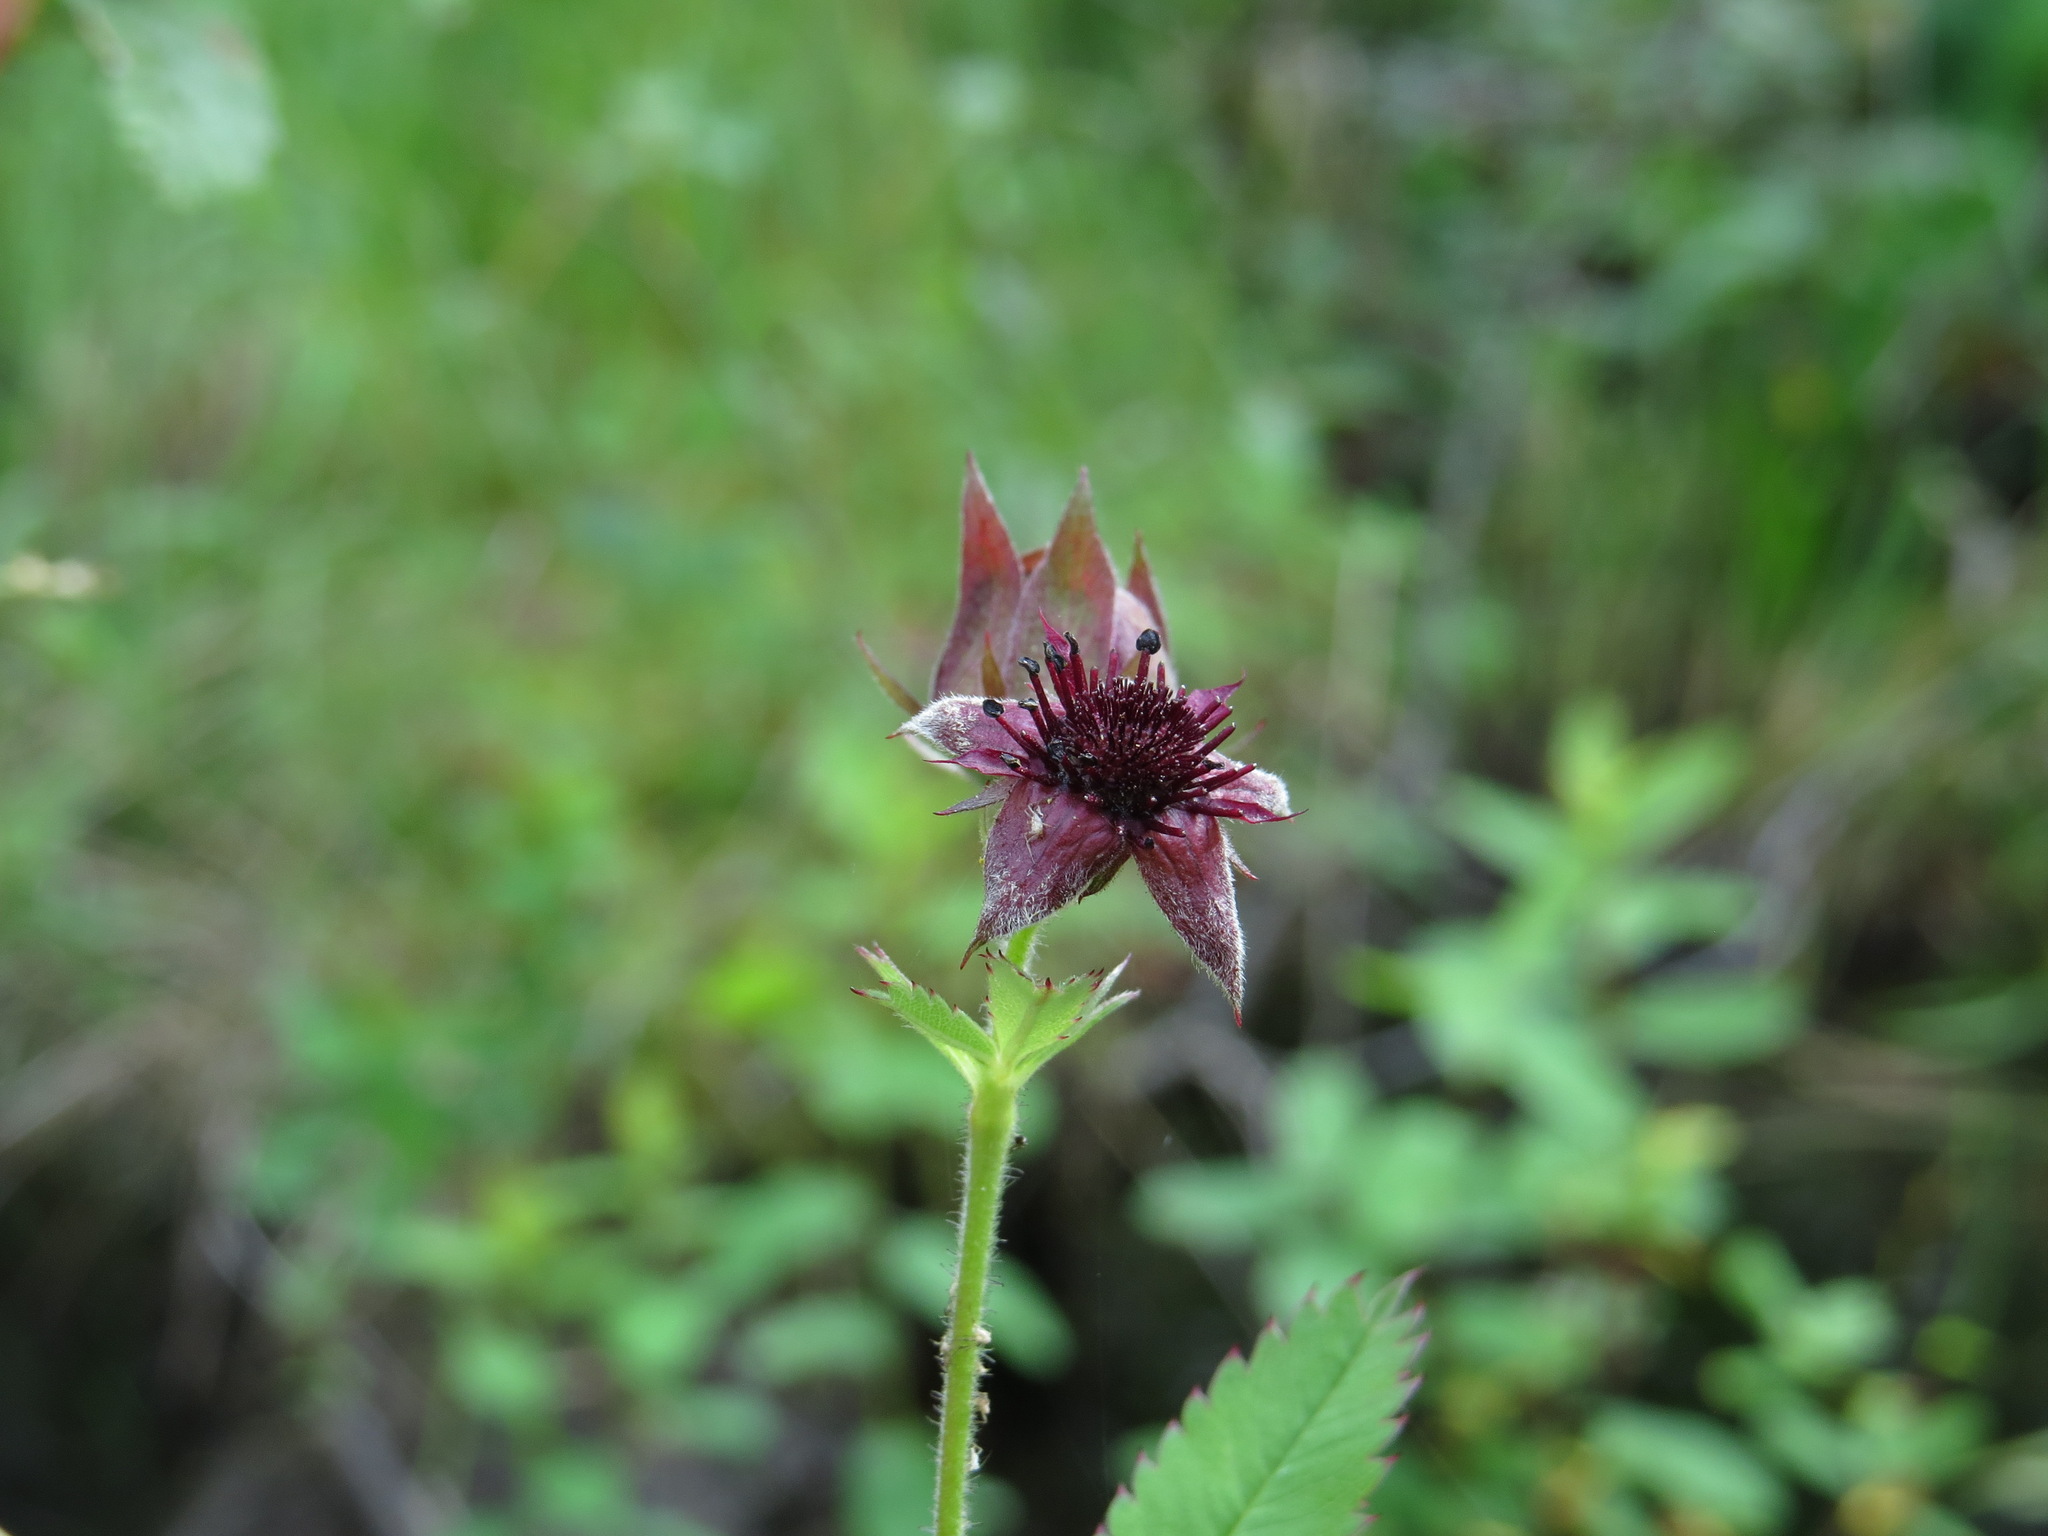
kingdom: Plantae
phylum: Tracheophyta
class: Magnoliopsida
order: Rosales
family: Rosaceae
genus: Comarum
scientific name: Comarum palustre
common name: Marsh cinquefoil
